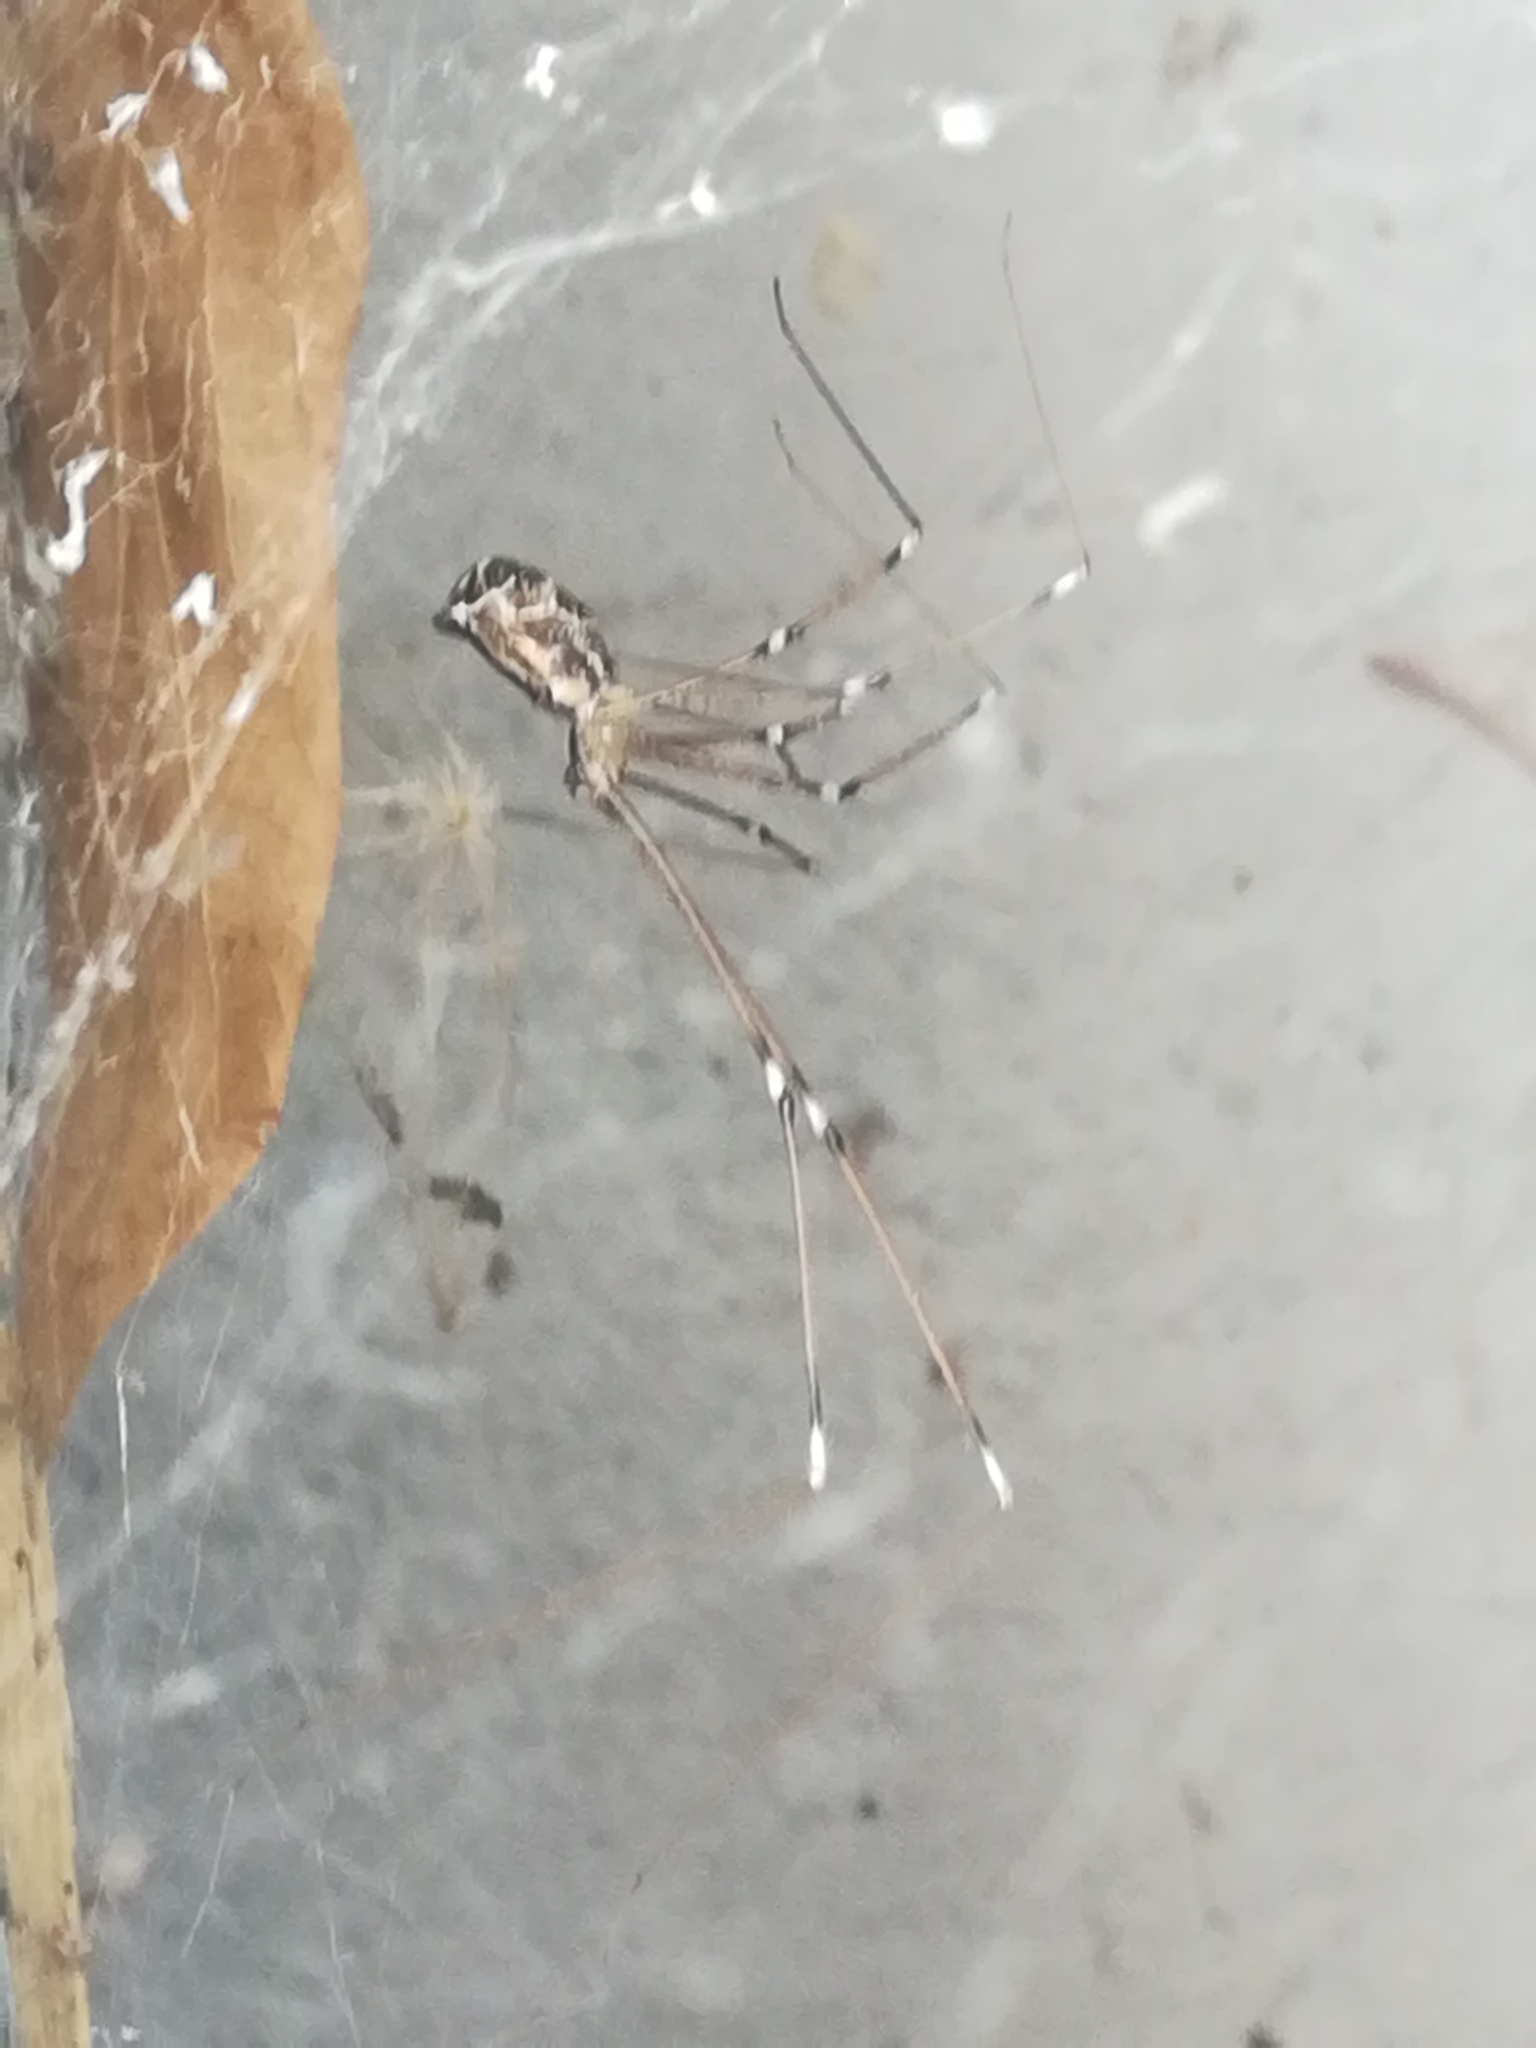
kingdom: Animalia
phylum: Arthropoda
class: Arachnida
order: Araneae
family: Pholcidae
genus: Holocnemus
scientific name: Holocnemus pluchei
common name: Marbled cellar spider
